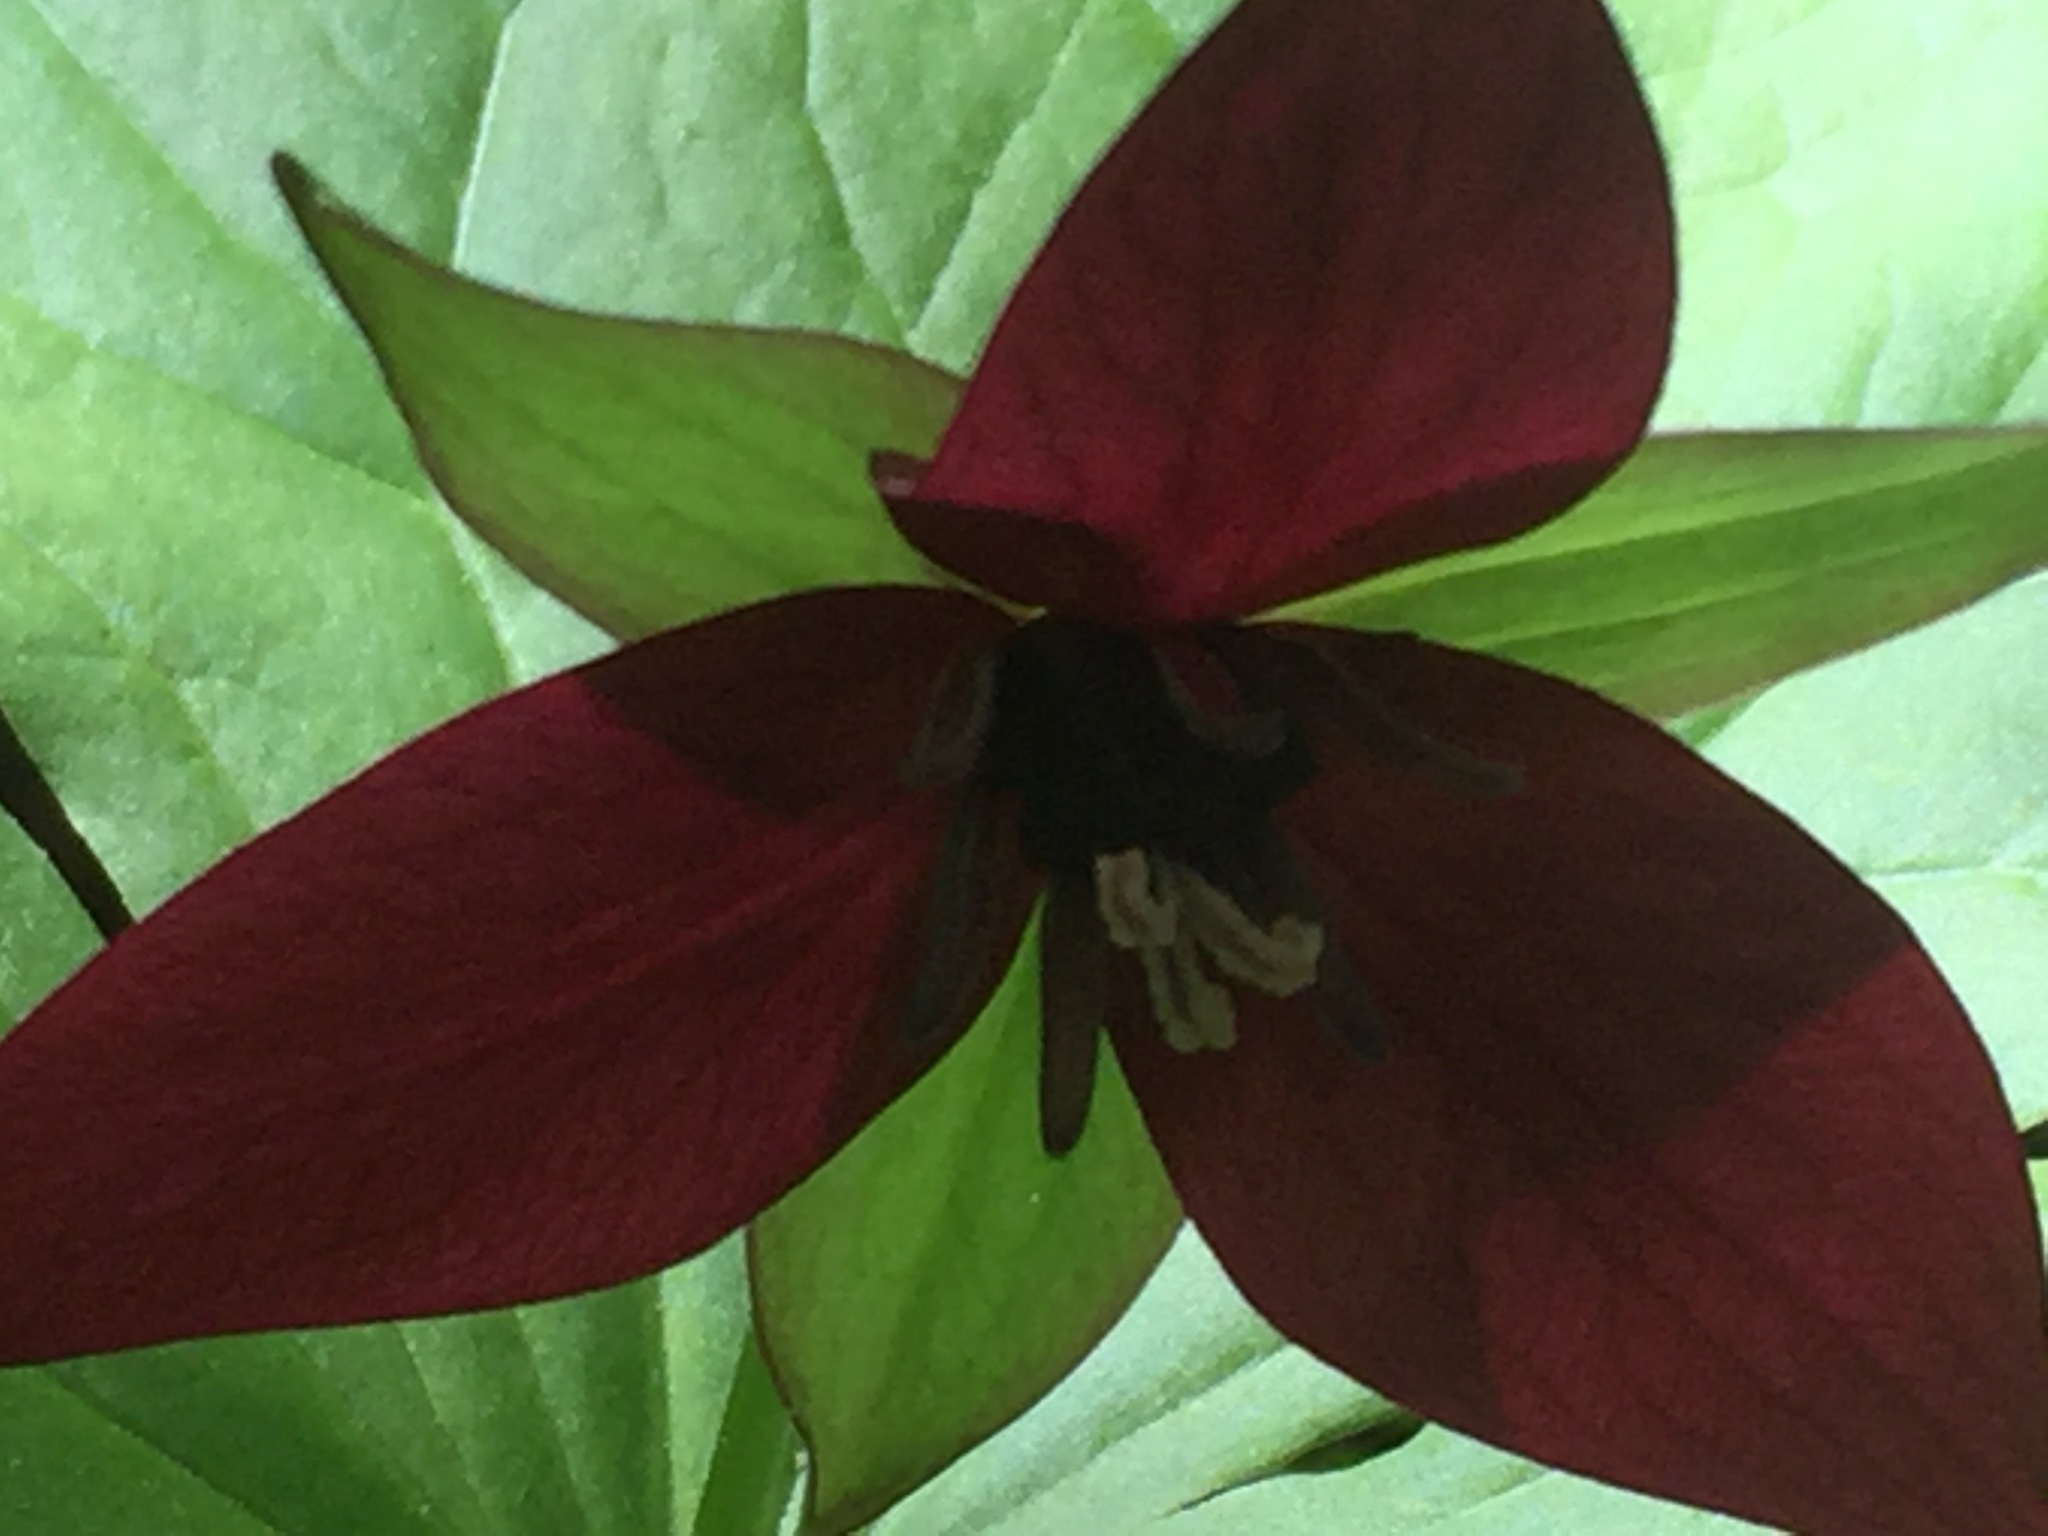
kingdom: Plantae
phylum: Tracheophyta
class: Liliopsida
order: Liliales
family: Melanthiaceae
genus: Trillium
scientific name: Trillium erectum
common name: Purple trillium
